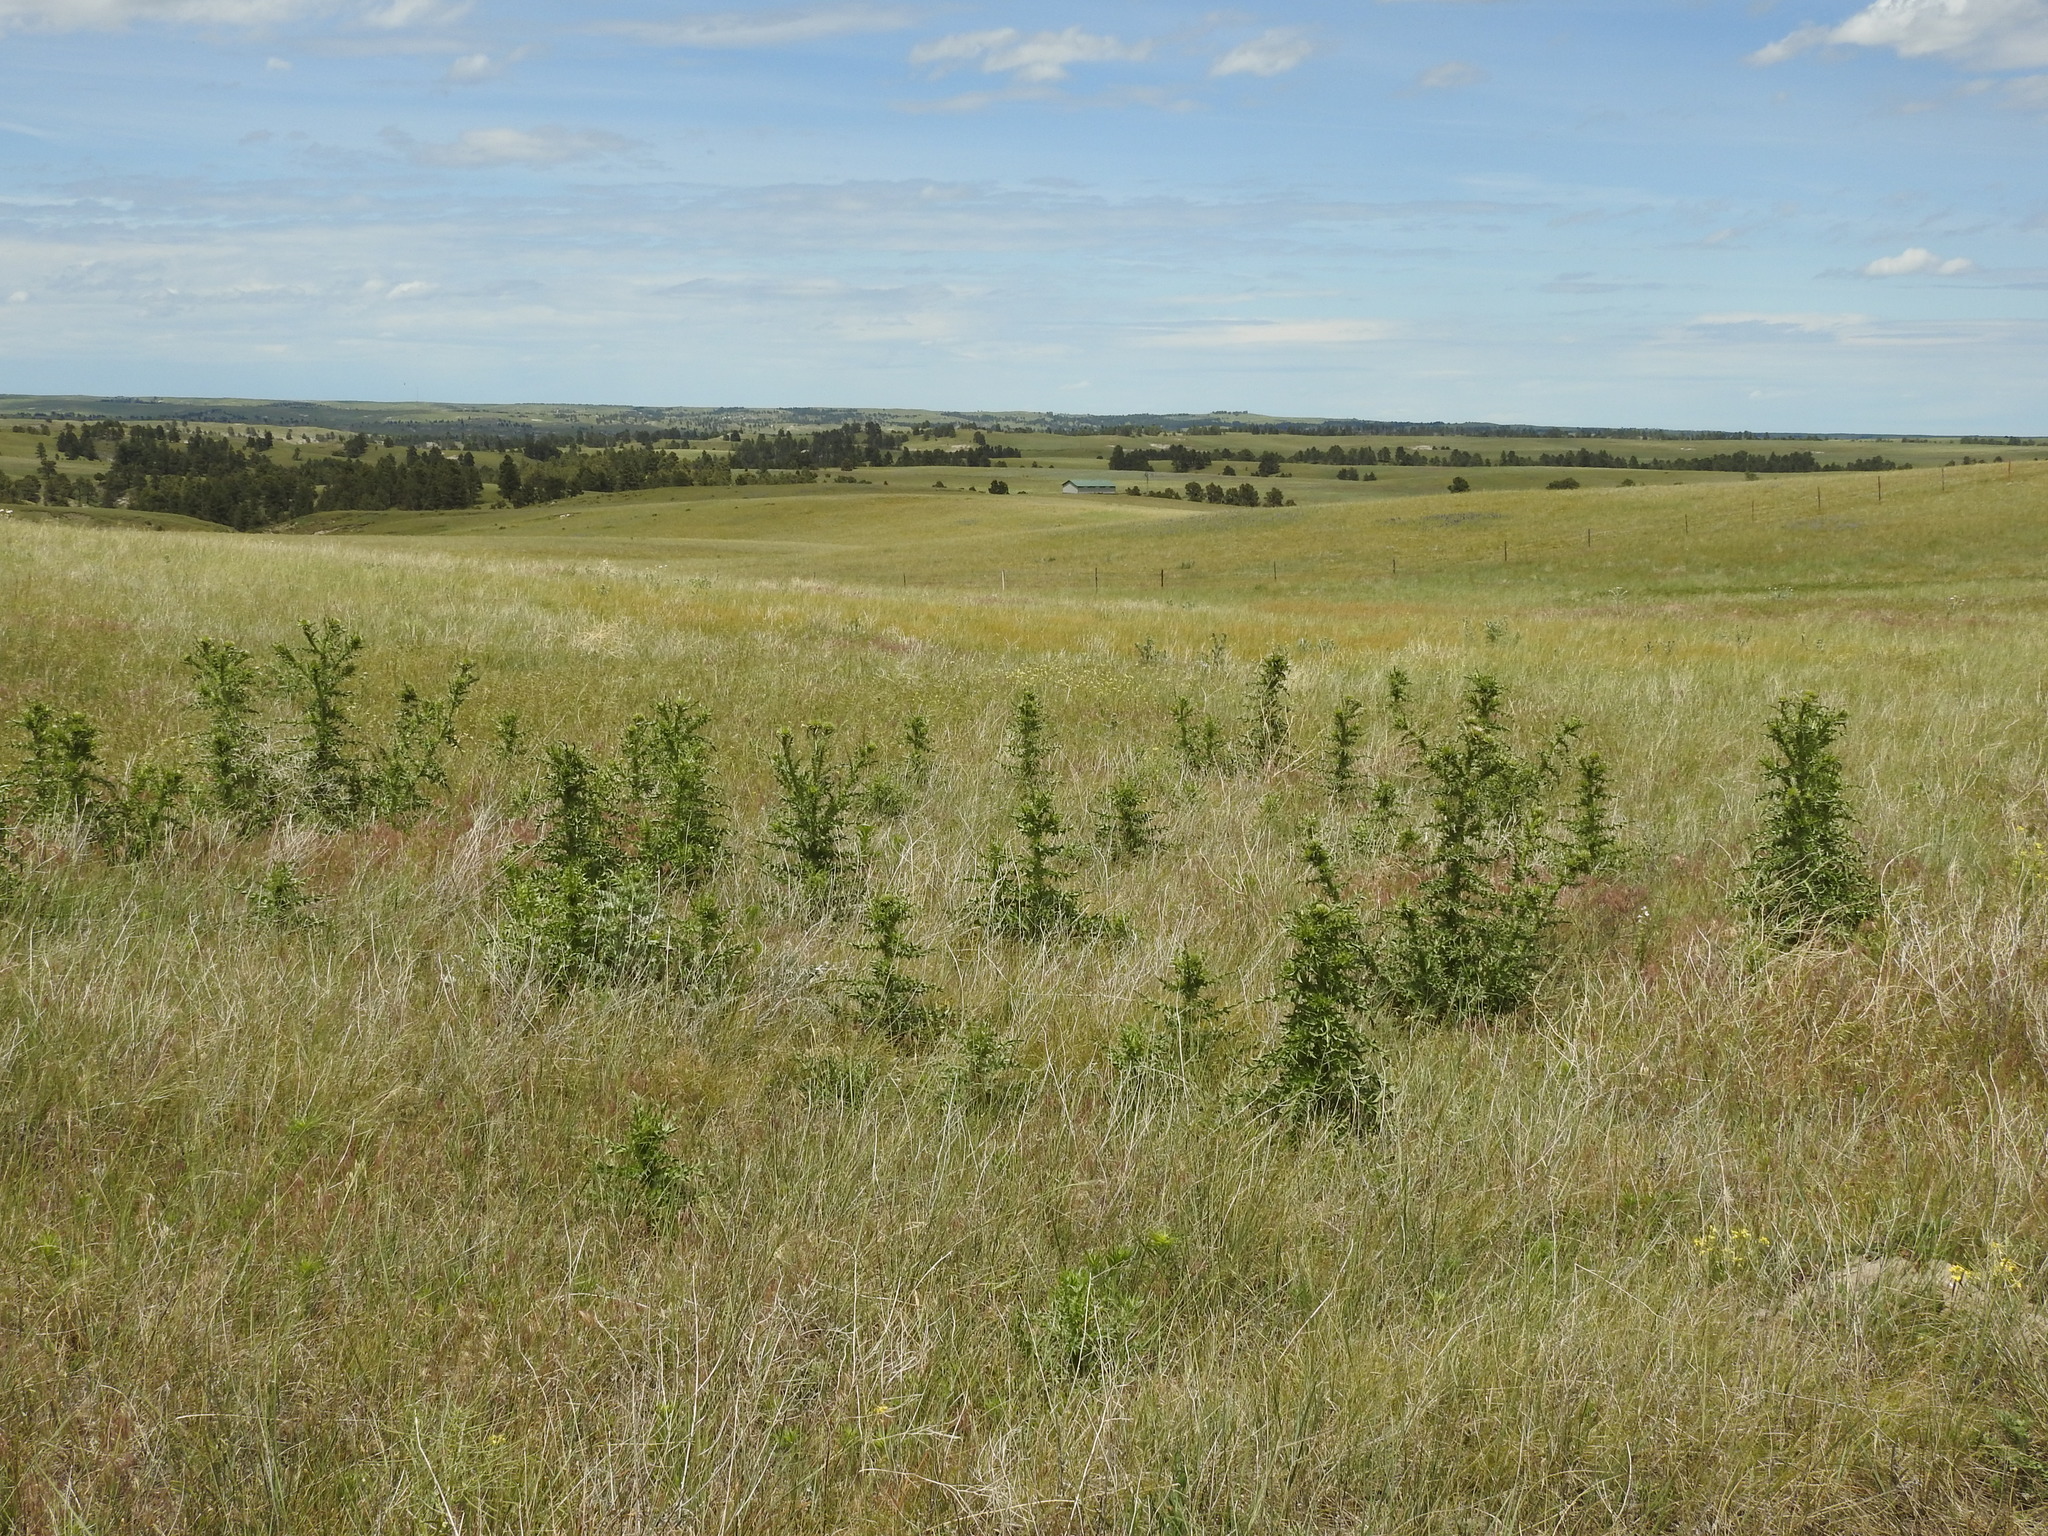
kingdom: Plantae
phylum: Tracheophyta
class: Magnoliopsida
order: Asterales
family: Asteraceae
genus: Carduus
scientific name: Carduus nutans
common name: Musk thistle
